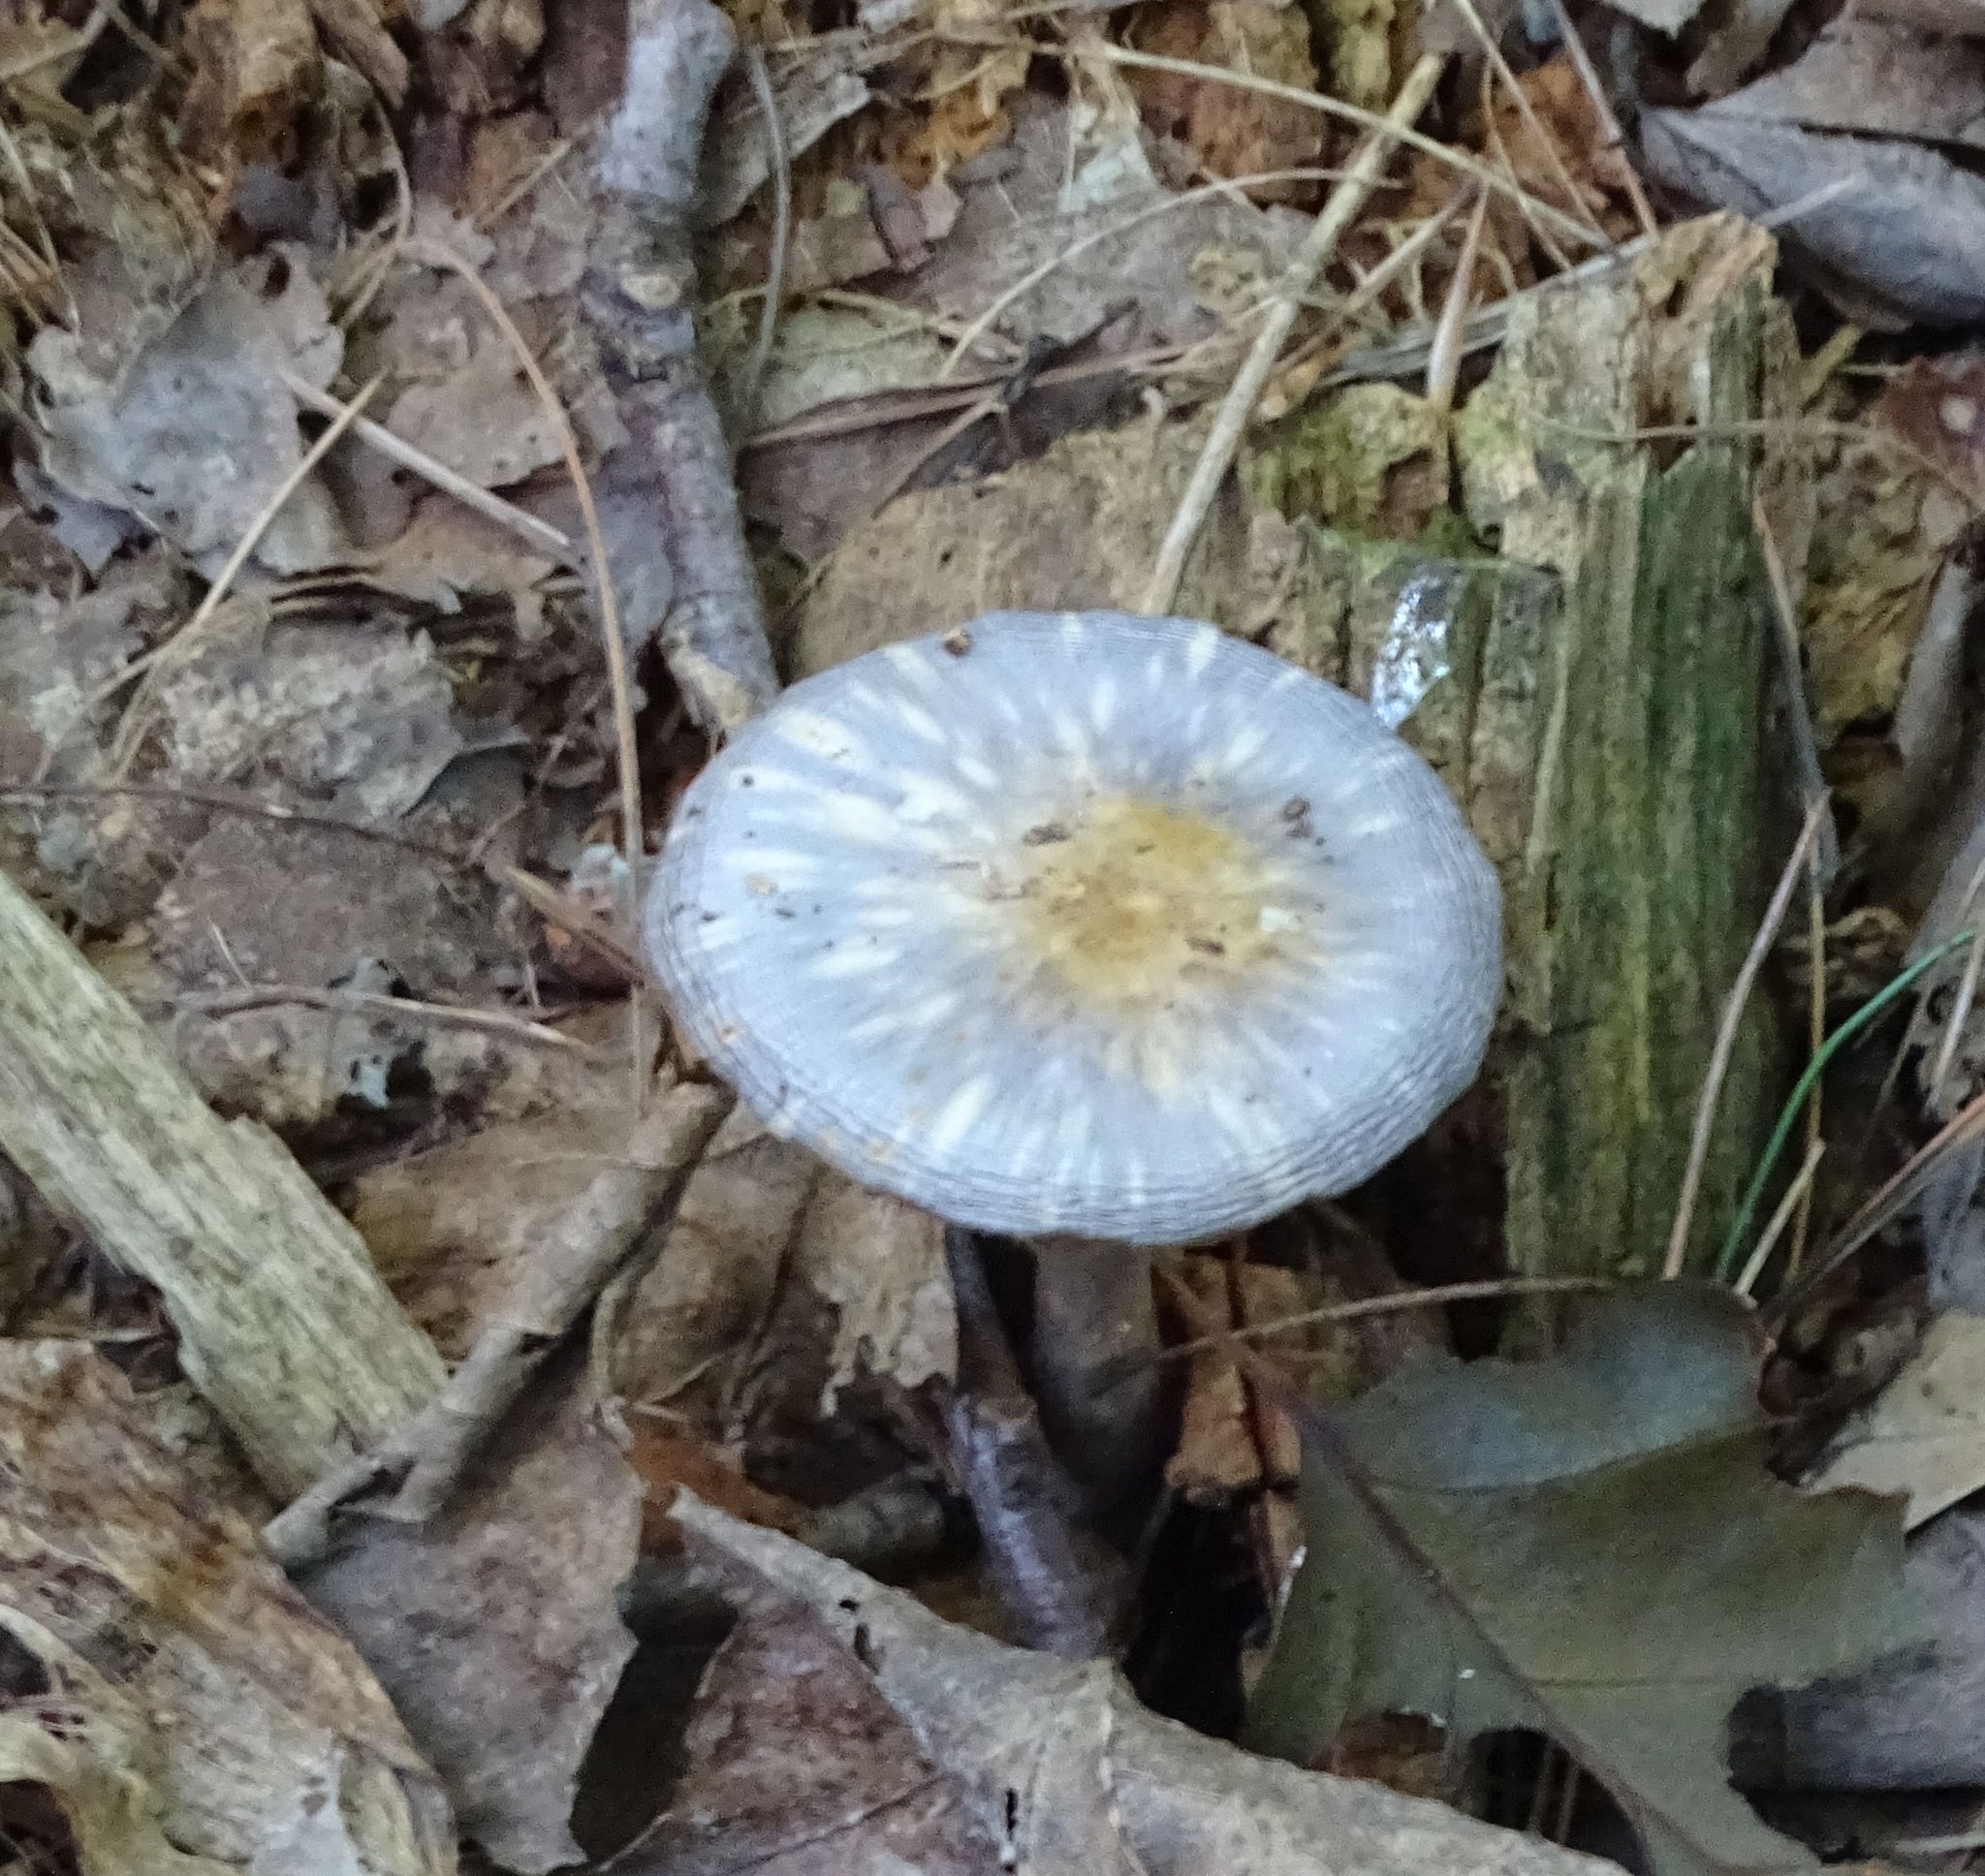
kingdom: Fungi
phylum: Basidiomycota
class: Agaricomycetes
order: Agaricales
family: Cortinariaceae
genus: Cortinarius
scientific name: Cortinarius iodes
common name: Viscid violet cort
